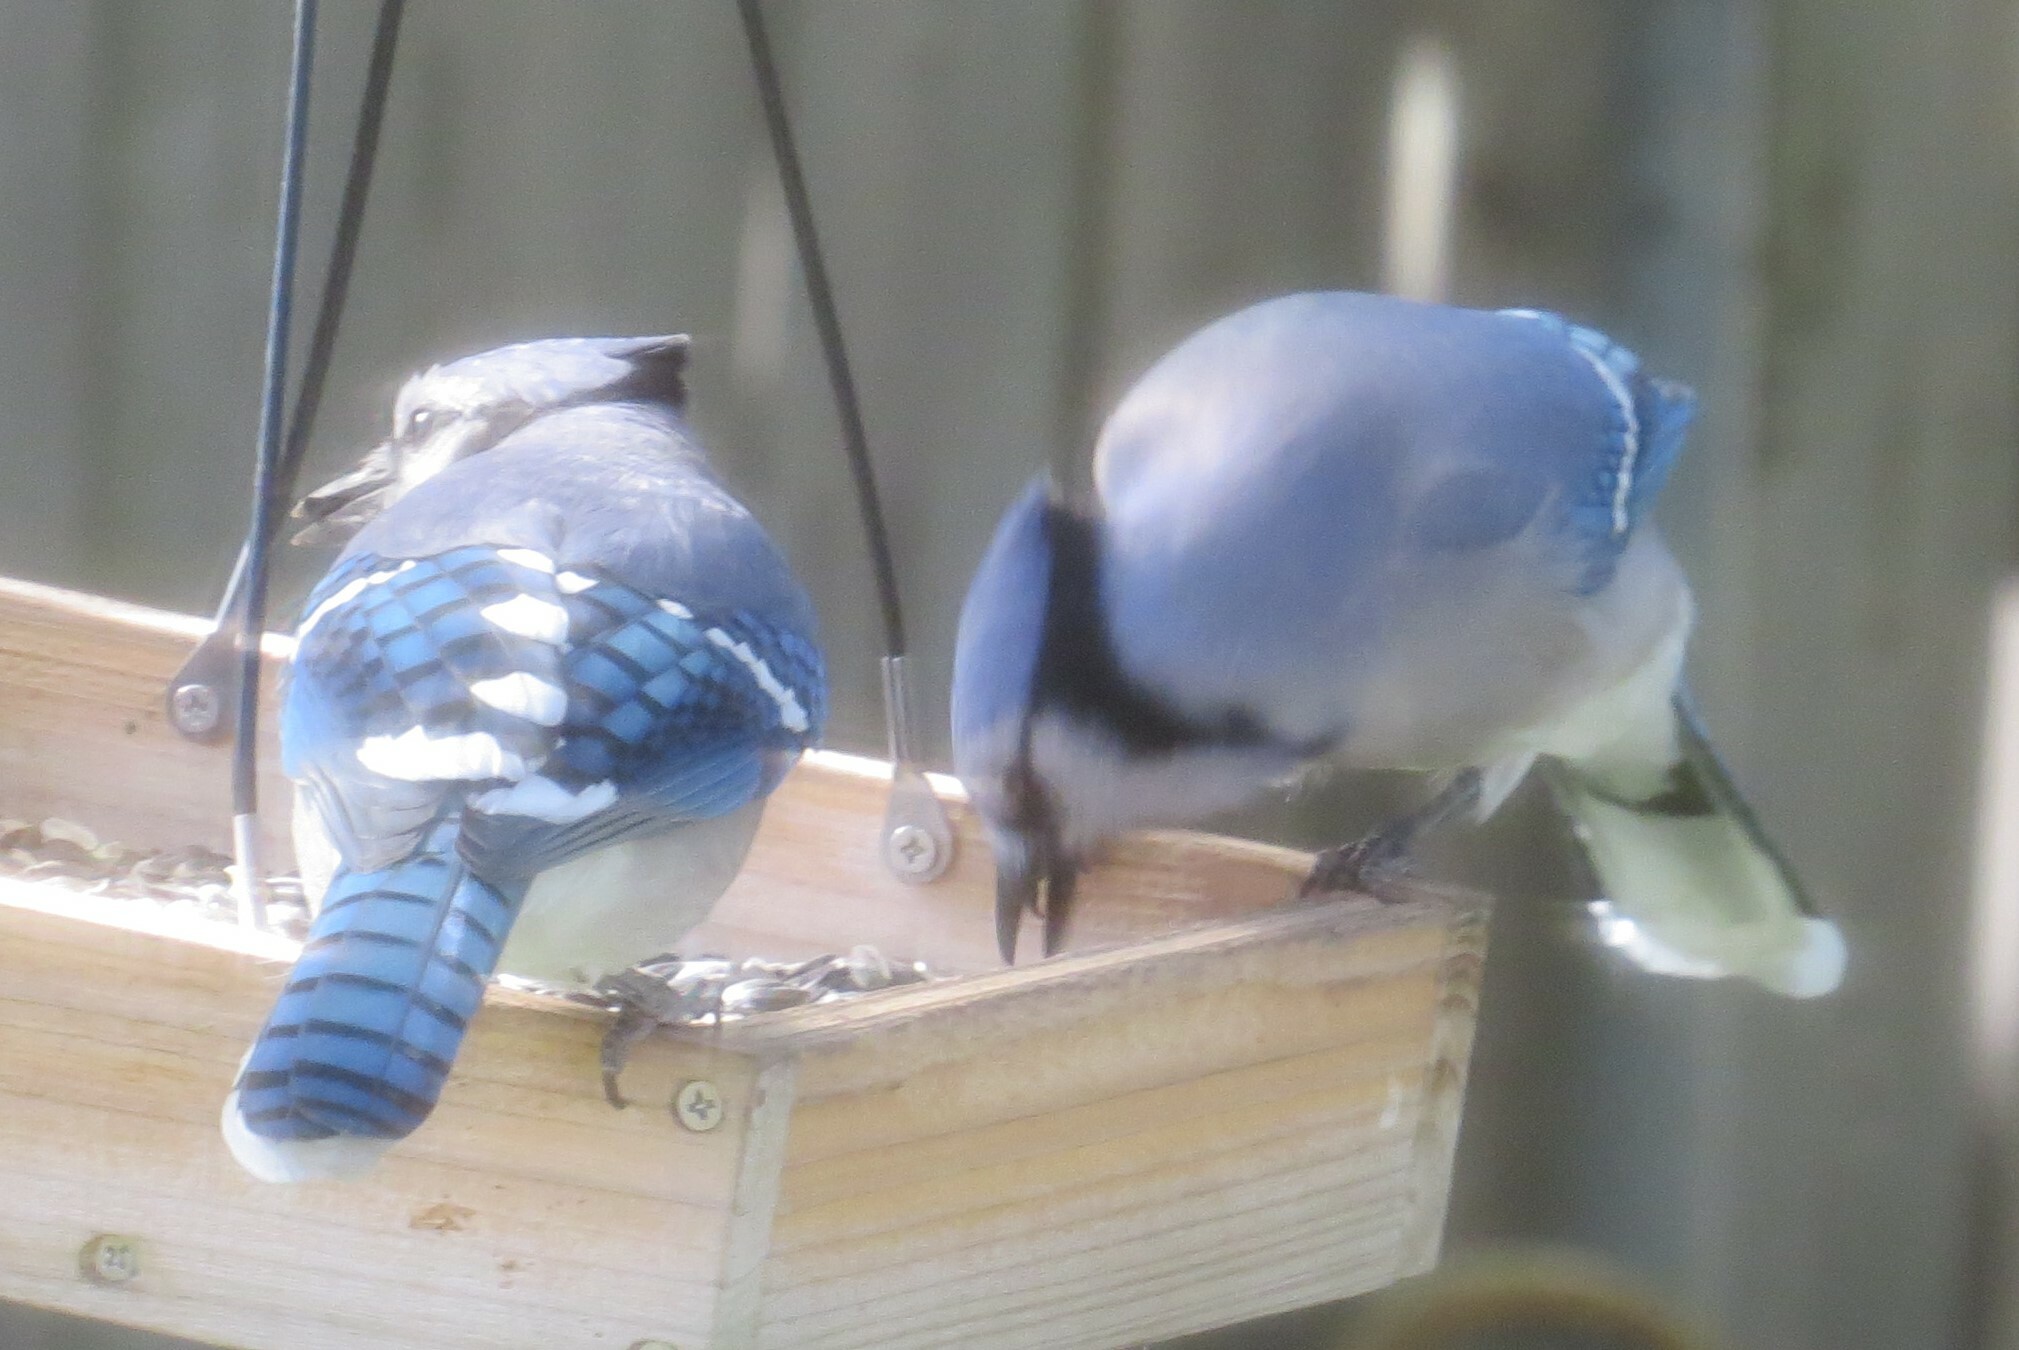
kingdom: Animalia
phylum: Chordata
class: Aves
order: Passeriformes
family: Corvidae
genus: Cyanocitta
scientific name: Cyanocitta cristata
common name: Blue jay
